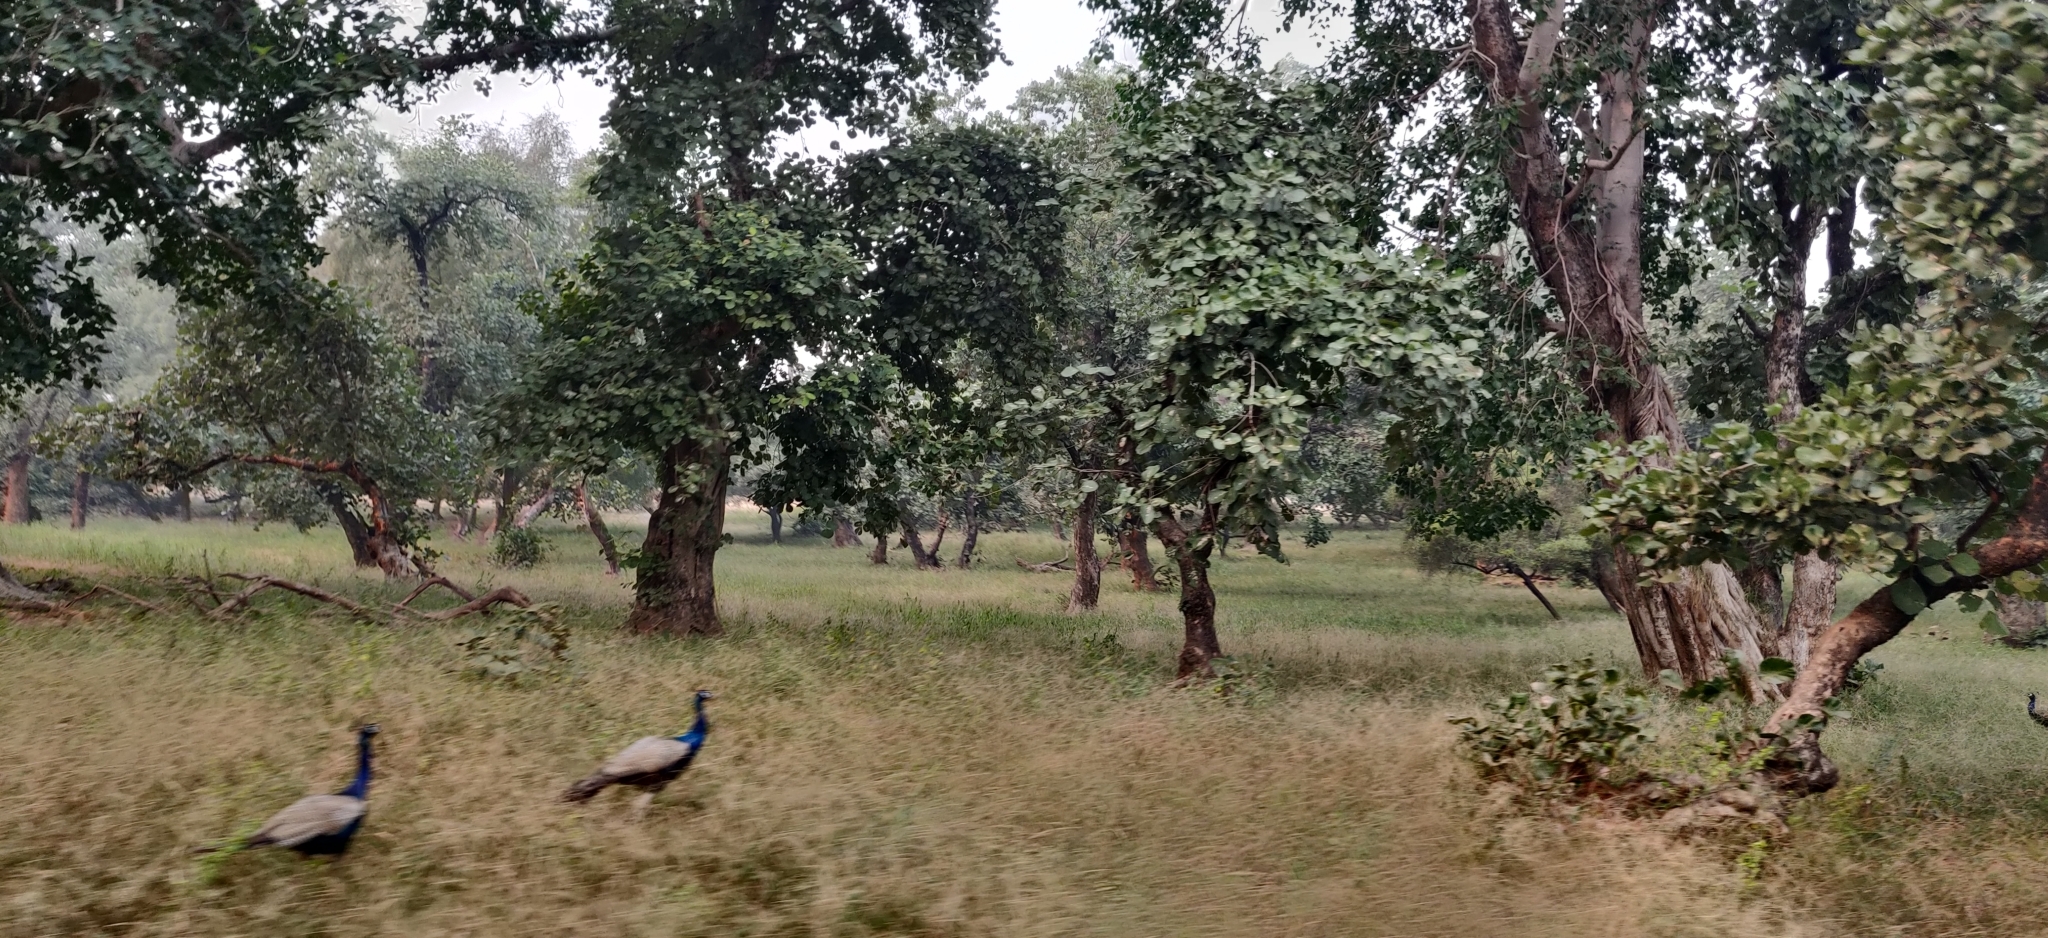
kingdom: Animalia
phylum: Chordata
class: Aves
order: Galliformes
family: Phasianidae
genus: Pavo
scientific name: Pavo cristatus
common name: Indian peafowl
